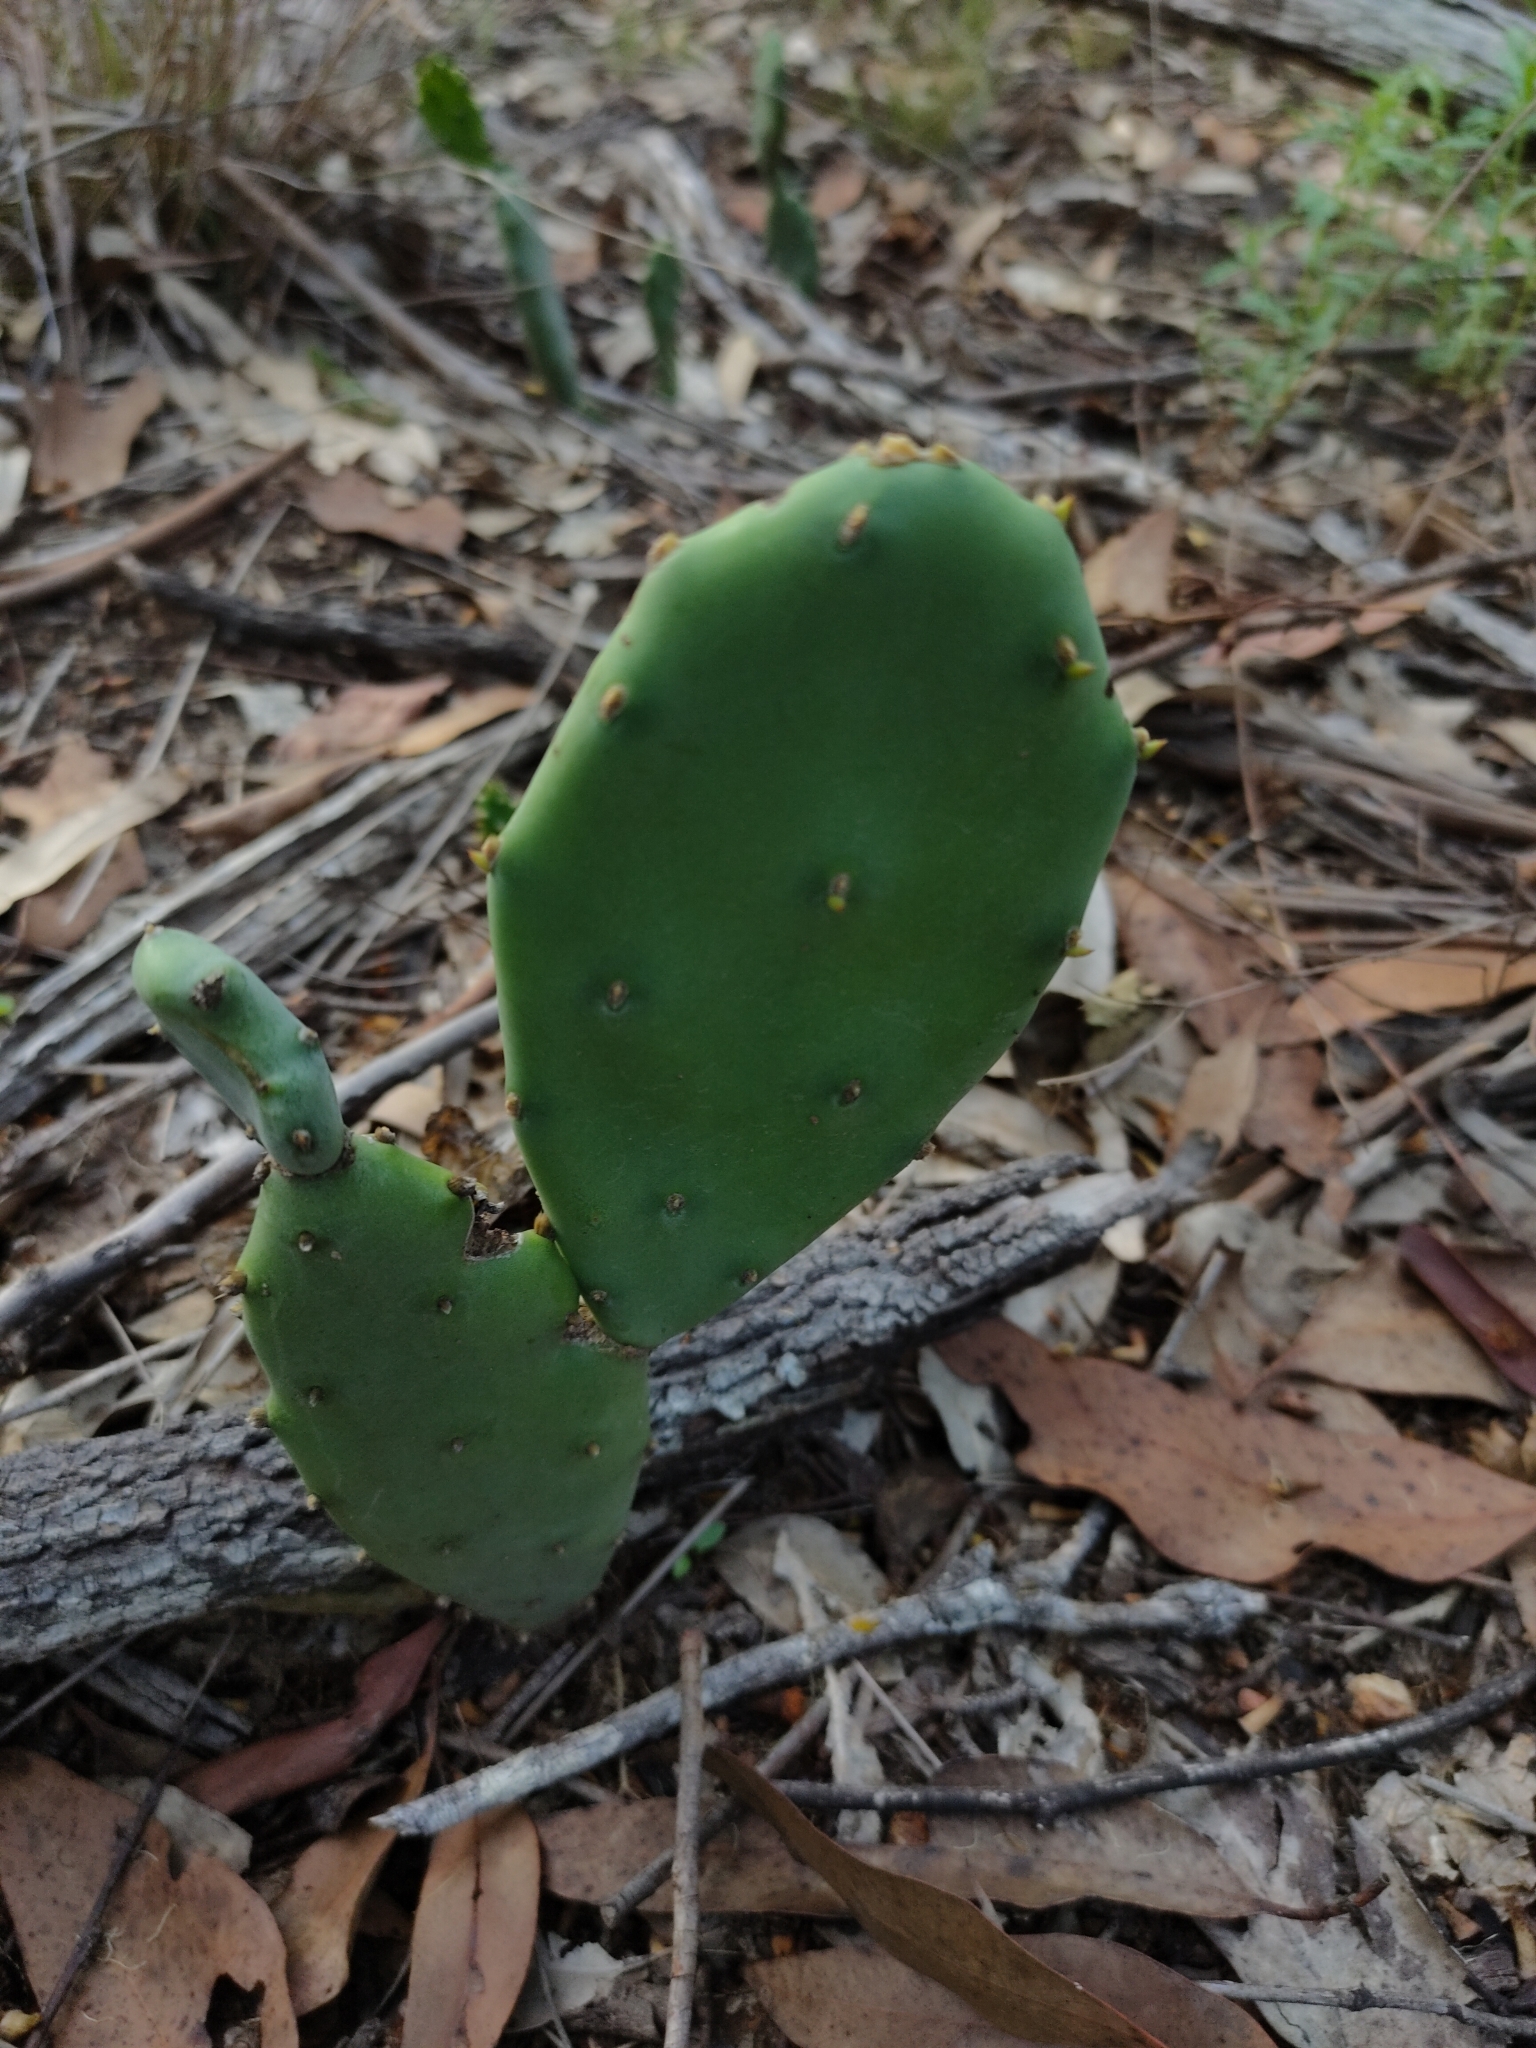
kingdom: Plantae
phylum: Tracheophyta
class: Magnoliopsida
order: Caryophyllales
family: Cactaceae
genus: Opuntia
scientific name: Opuntia stricta
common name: Erect pricklypear
